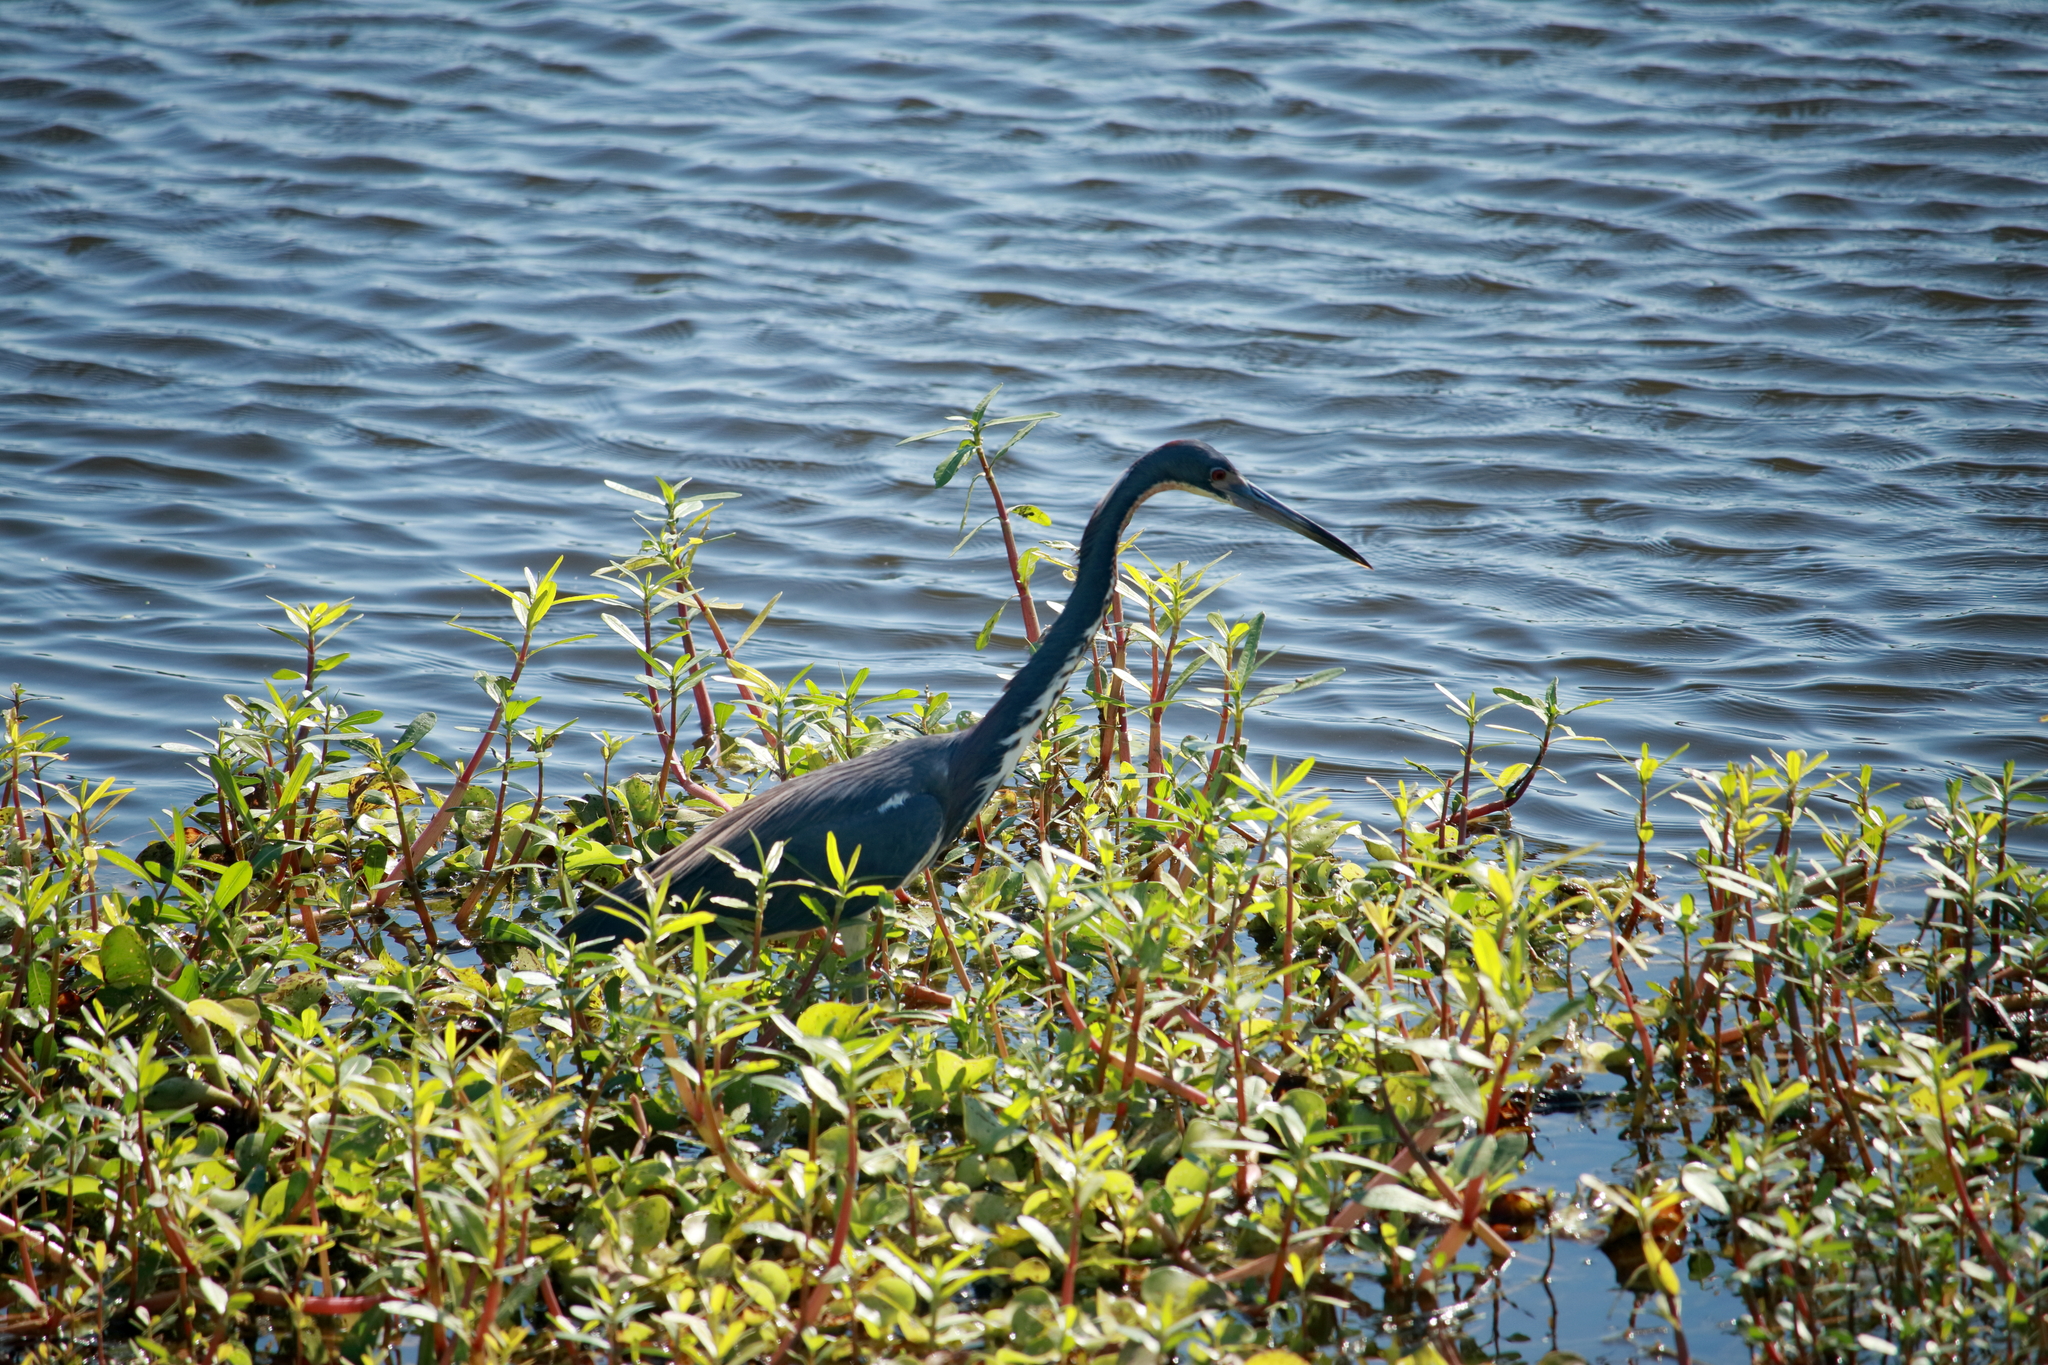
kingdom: Animalia
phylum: Chordata
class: Aves
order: Pelecaniformes
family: Ardeidae
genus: Egretta
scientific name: Egretta tricolor
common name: Tricolored heron
